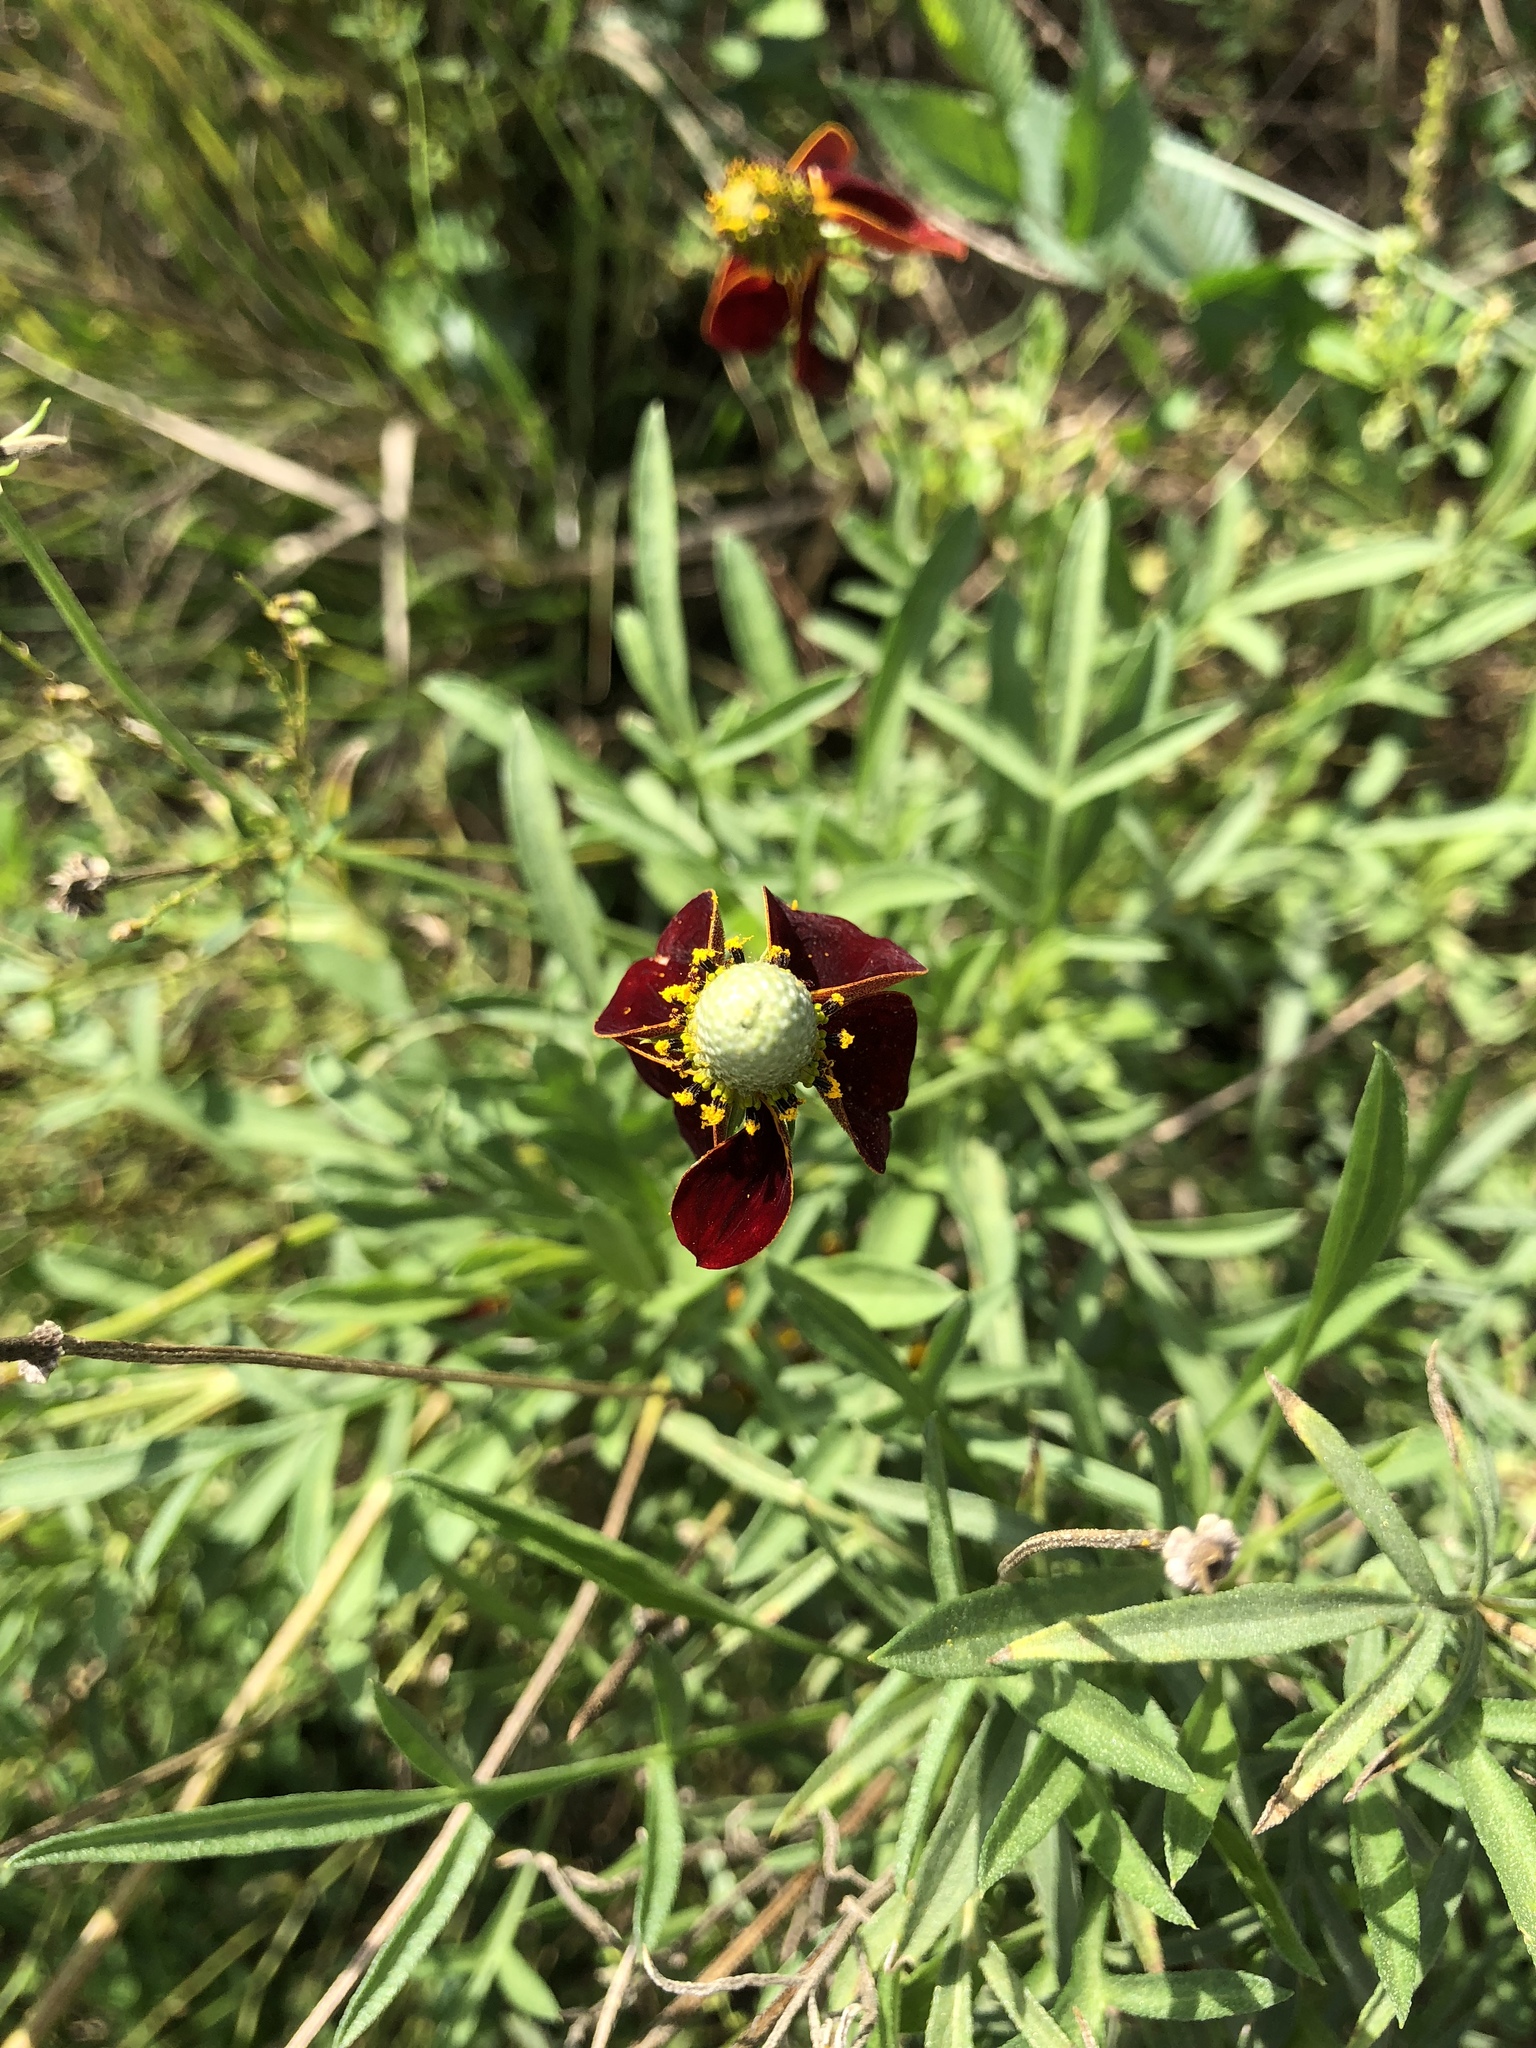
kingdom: Plantae
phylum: Tracheophyta
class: Magnoliopsida
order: Asterales
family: Asteraceae
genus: Ratibida
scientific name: Ratibida columnifera
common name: Prairie coneflower
